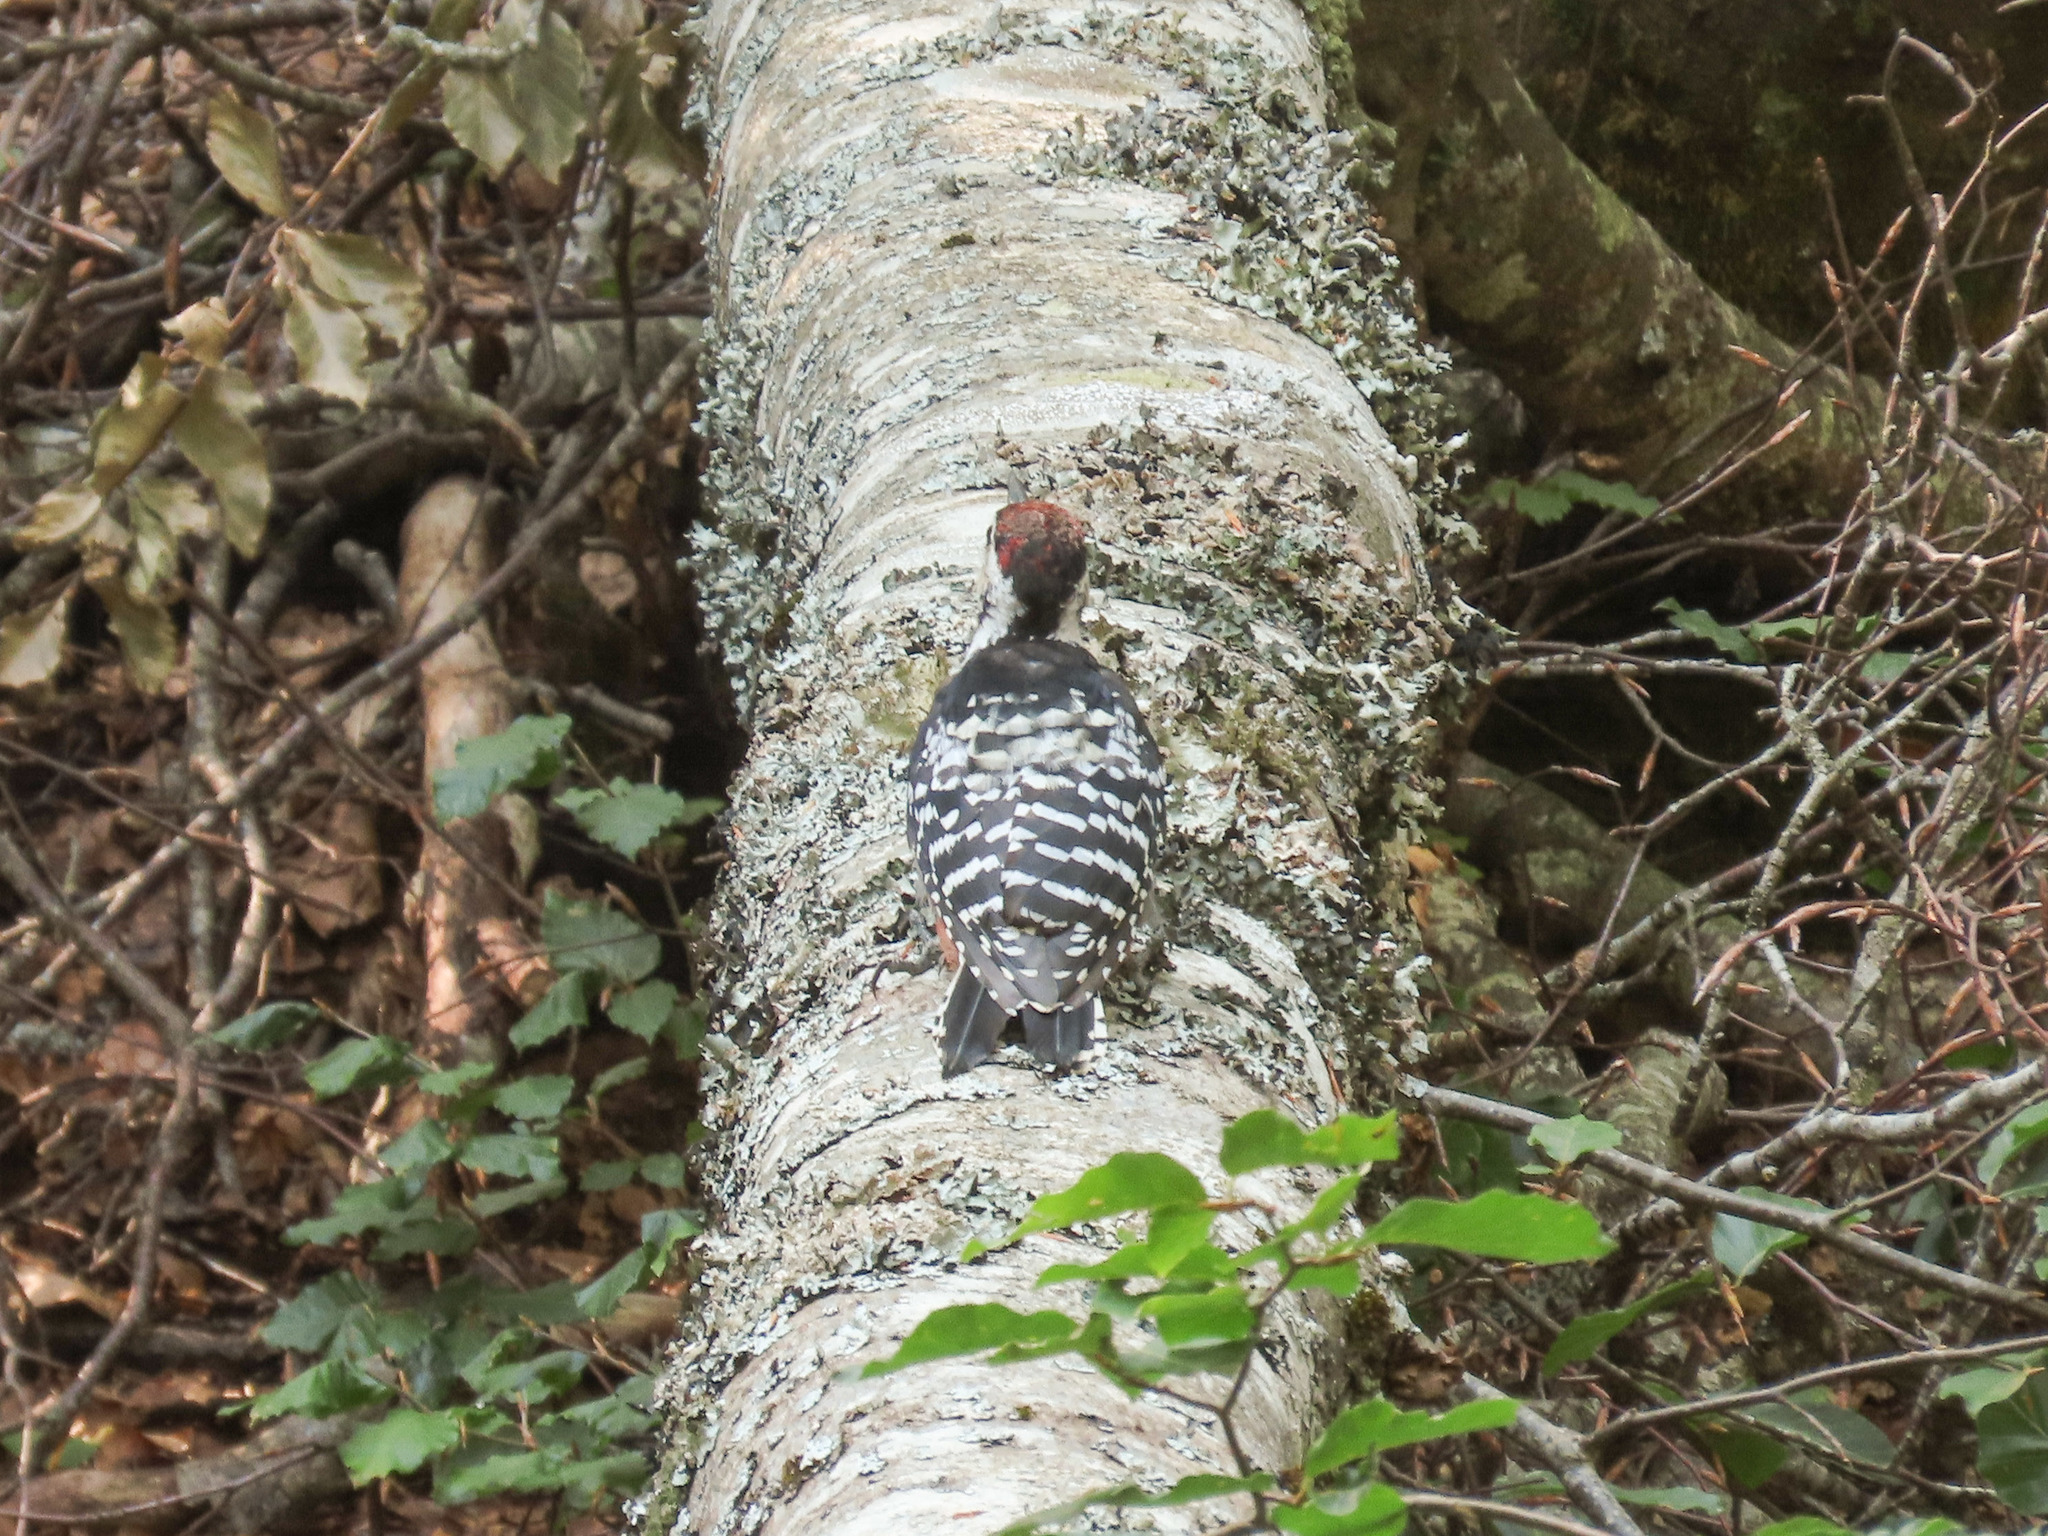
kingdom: Animalia
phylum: Chordata
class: Aves
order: Piciformes
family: Picidae
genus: Dendrocopos
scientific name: Dendrocopos leucotos
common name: White-backed woodpecker
